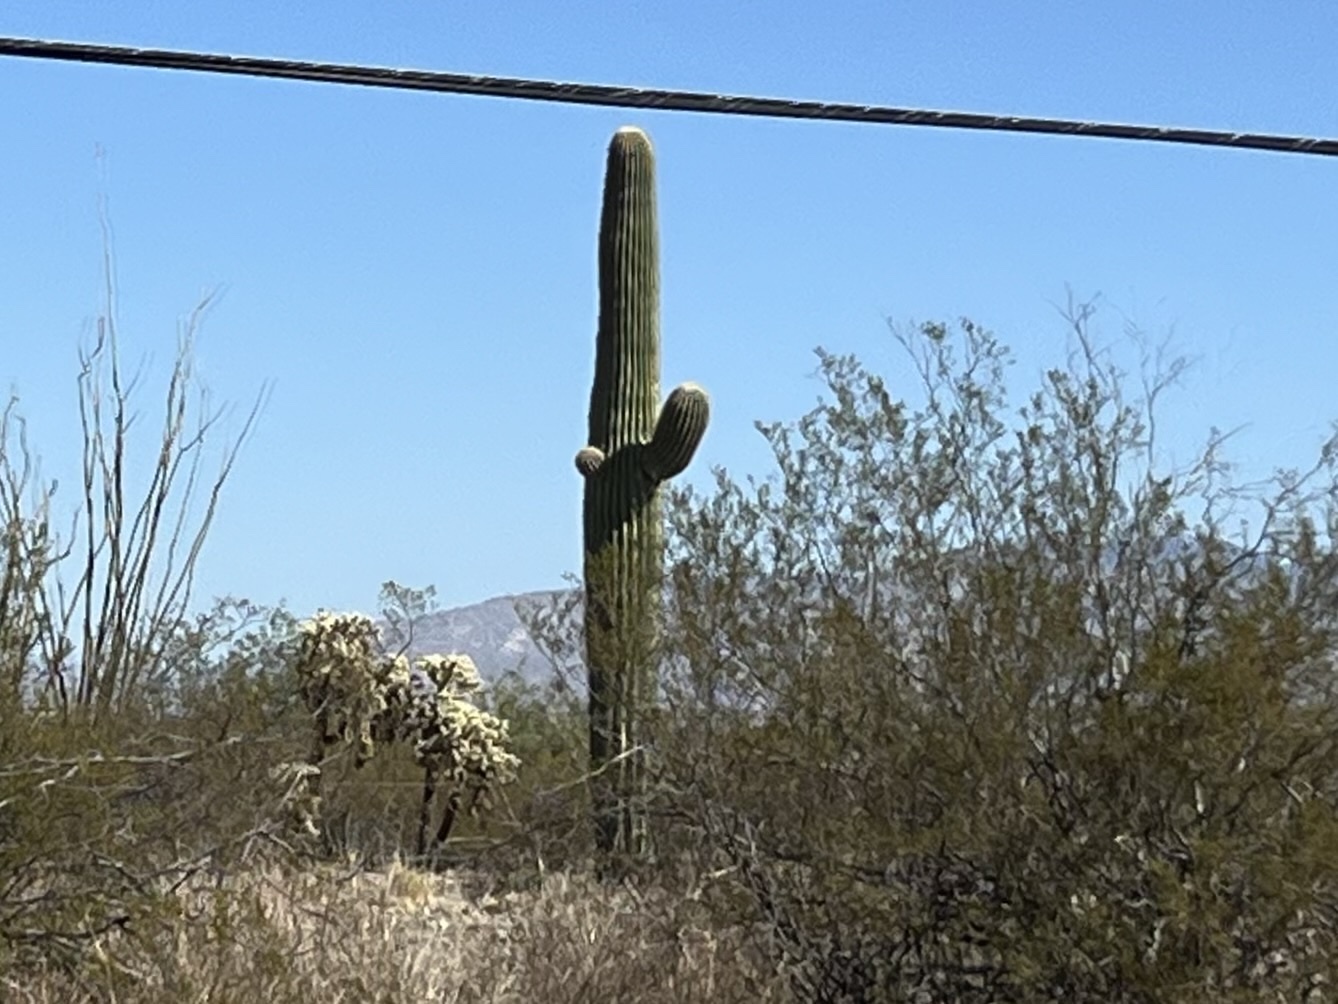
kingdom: Plantae
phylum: Tracheophyta
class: Magnoliopsida
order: Caryophyllales
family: Cactaceae
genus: Carnegiea
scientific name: Carnegiea gigantea
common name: Saguaro
